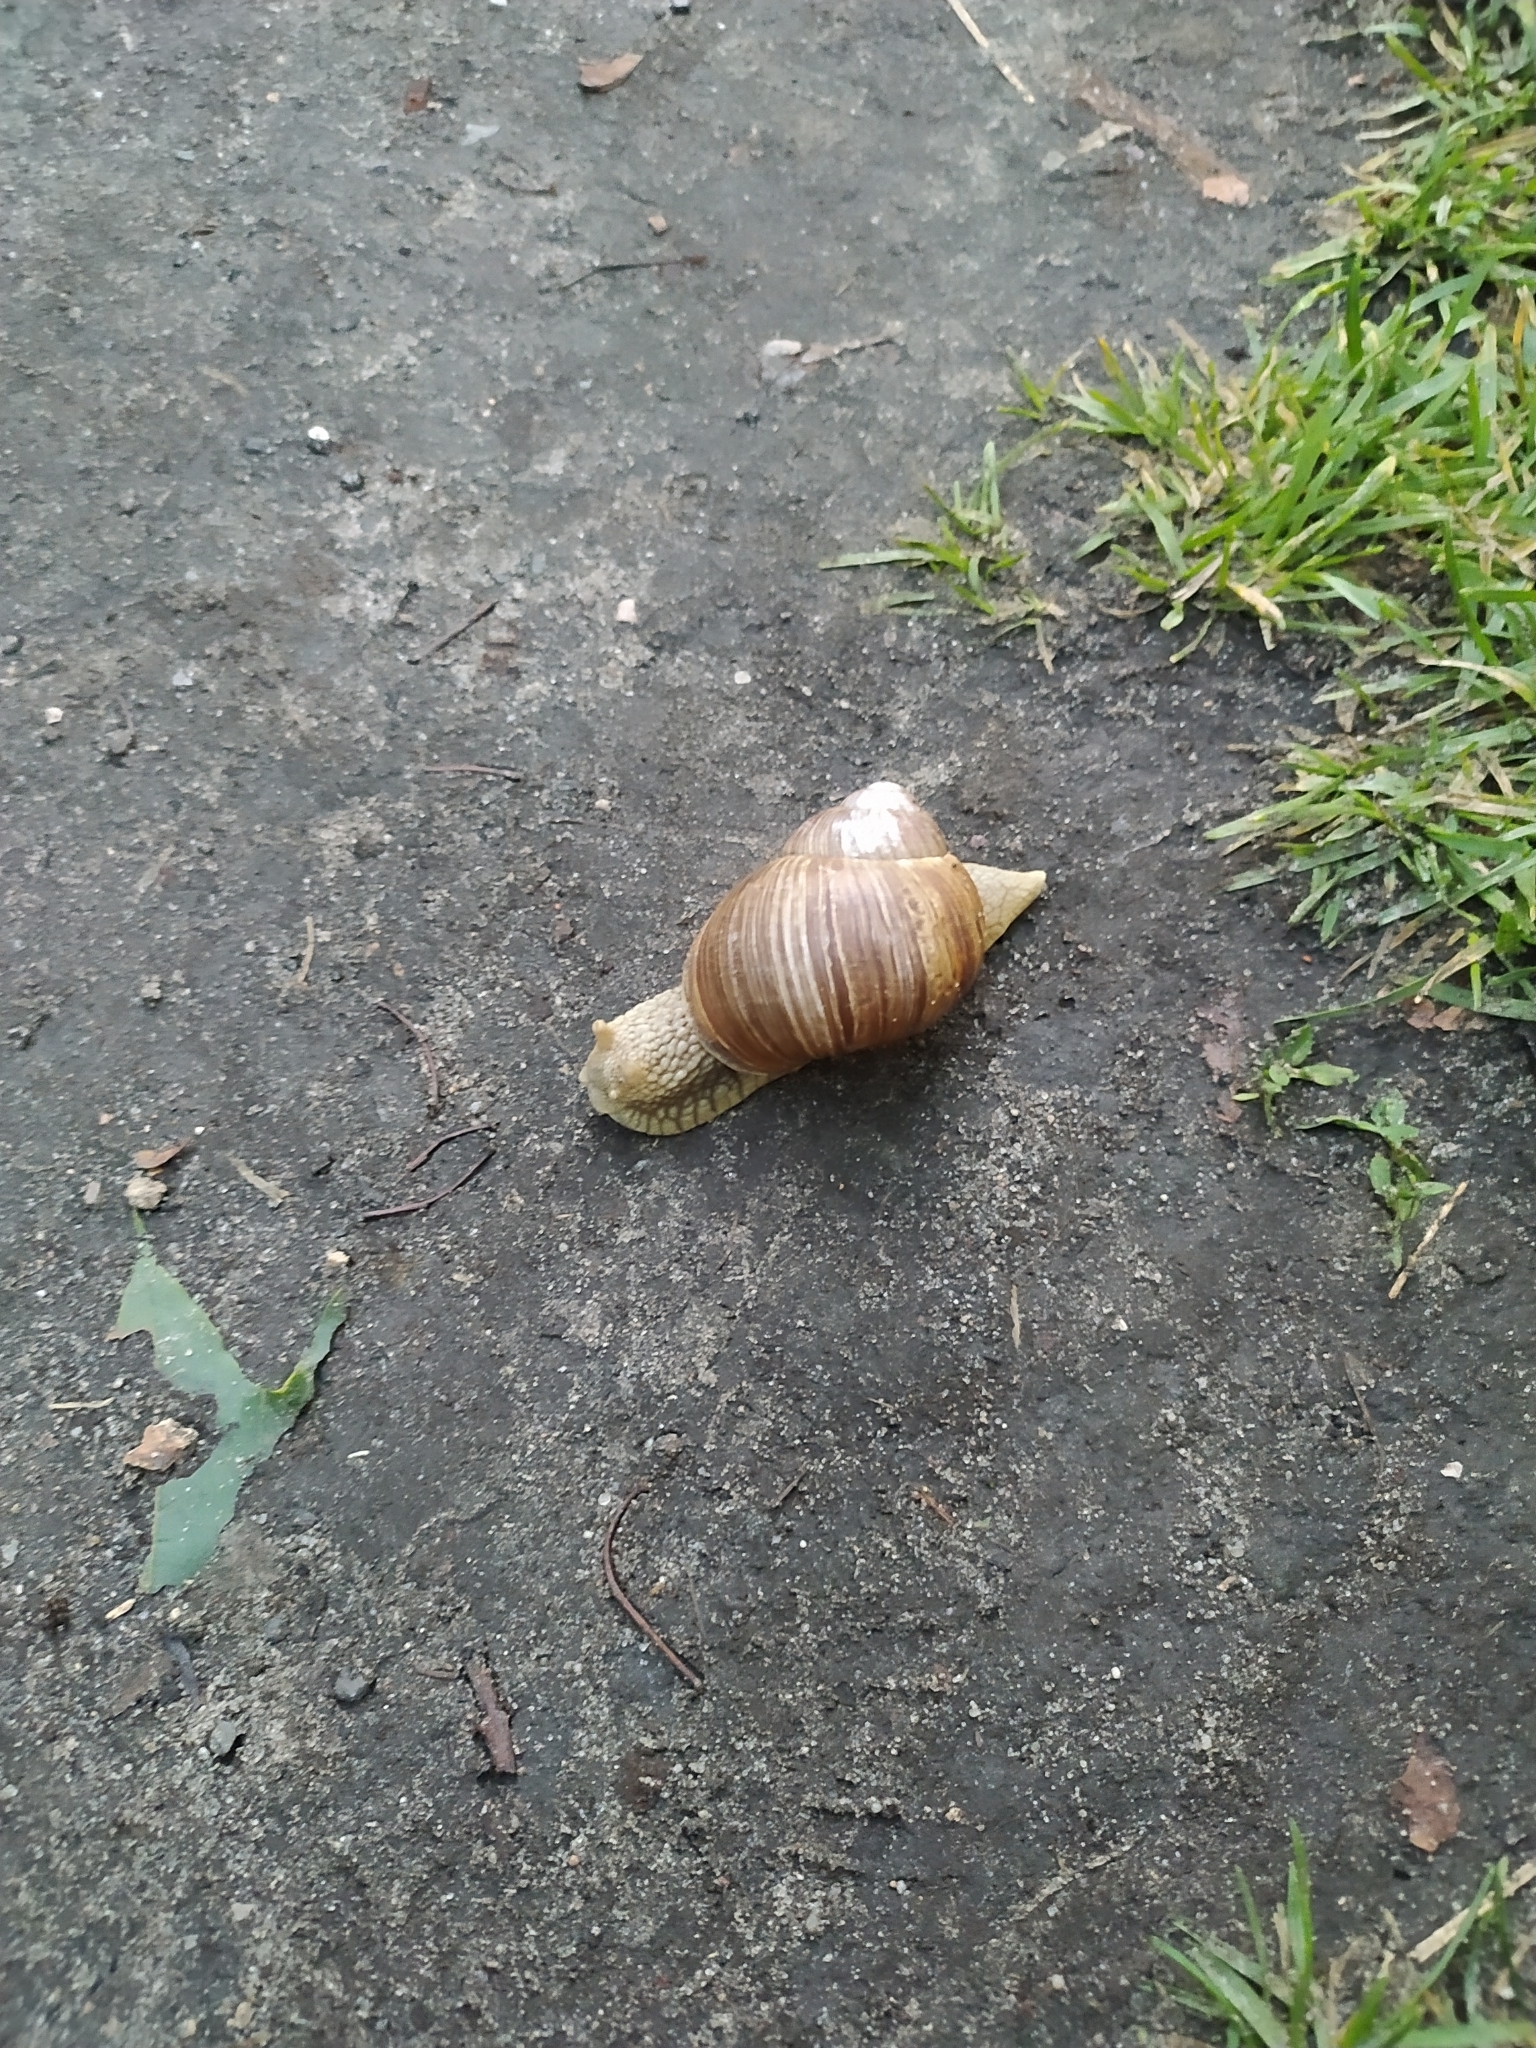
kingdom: Animalia
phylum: Mollusca
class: Gastropoda
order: Stylommatophora
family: Helicidae
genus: Helix
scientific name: Helix pomatia
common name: Roman snail
